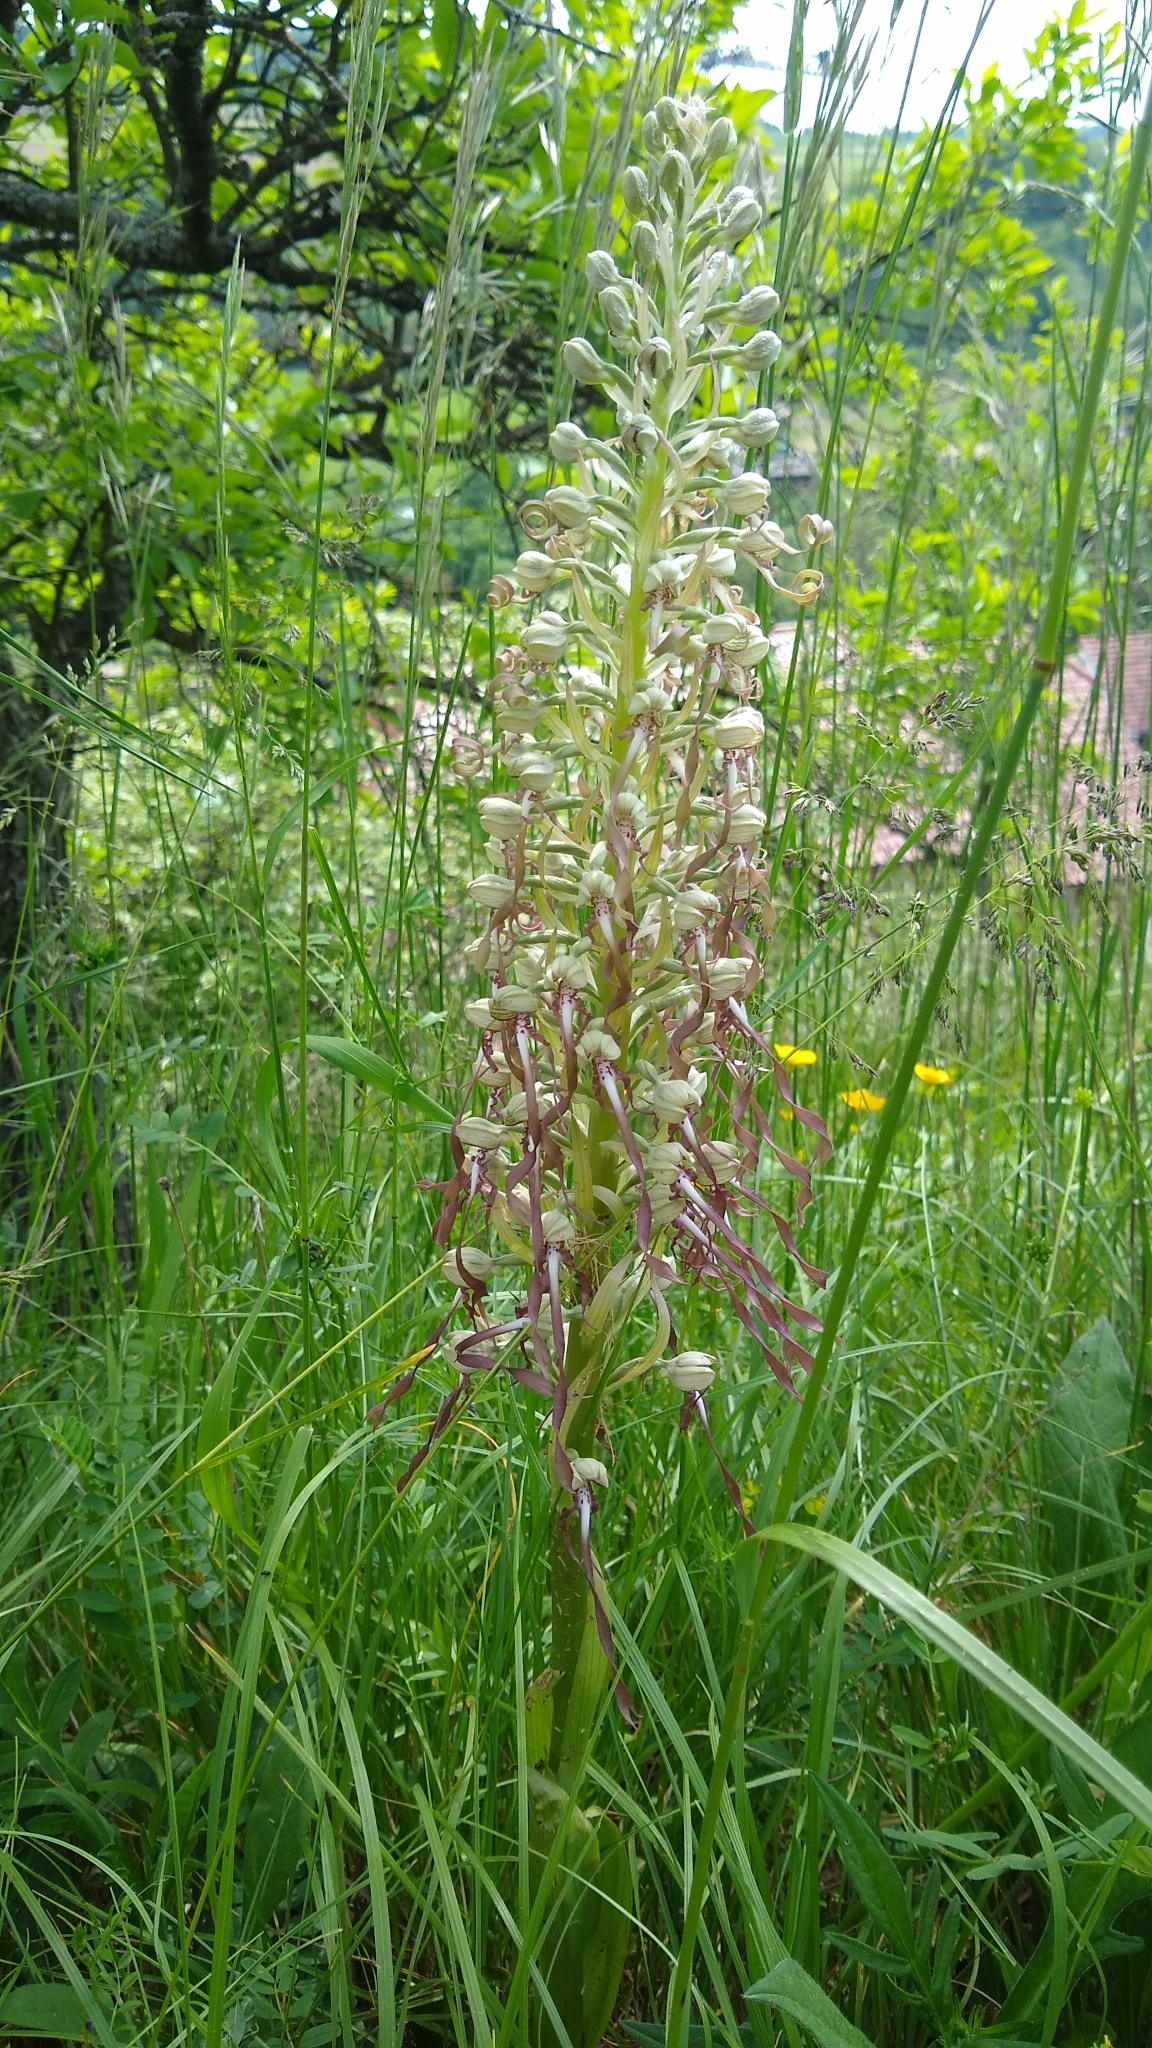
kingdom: Plantae
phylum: Tracheophyta
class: Liliopsida
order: Asparagales
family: Orchidaceae
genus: Himantoglossum
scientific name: Himantoglossum hircinum
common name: Lizard orchid
